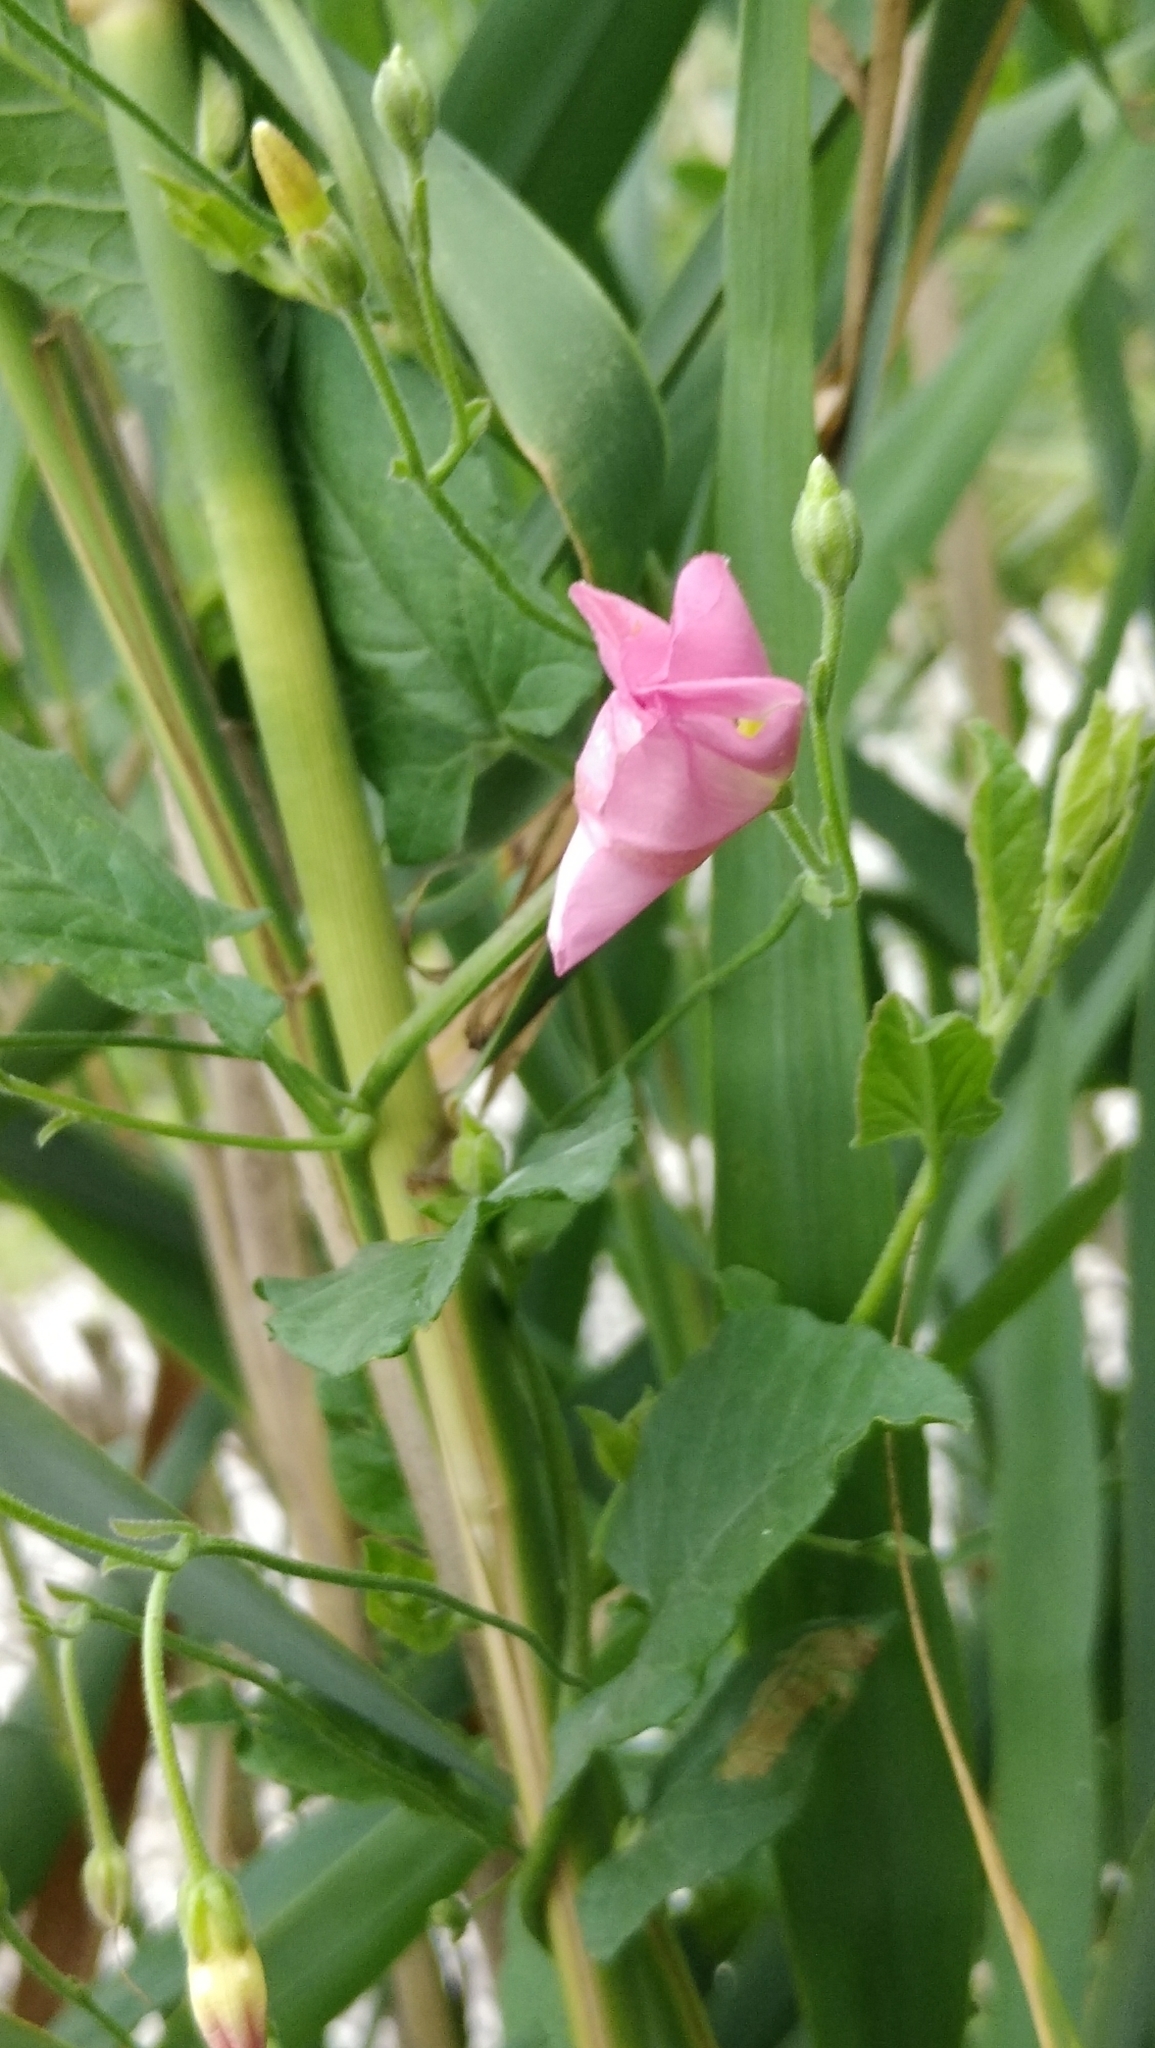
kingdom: Plantae
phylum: Tracheophyta
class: Magnoliopsida
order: Solanales
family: Convolvulaceae
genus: Convolvulus
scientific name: Convolvulus arvensis
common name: Field bindweed
